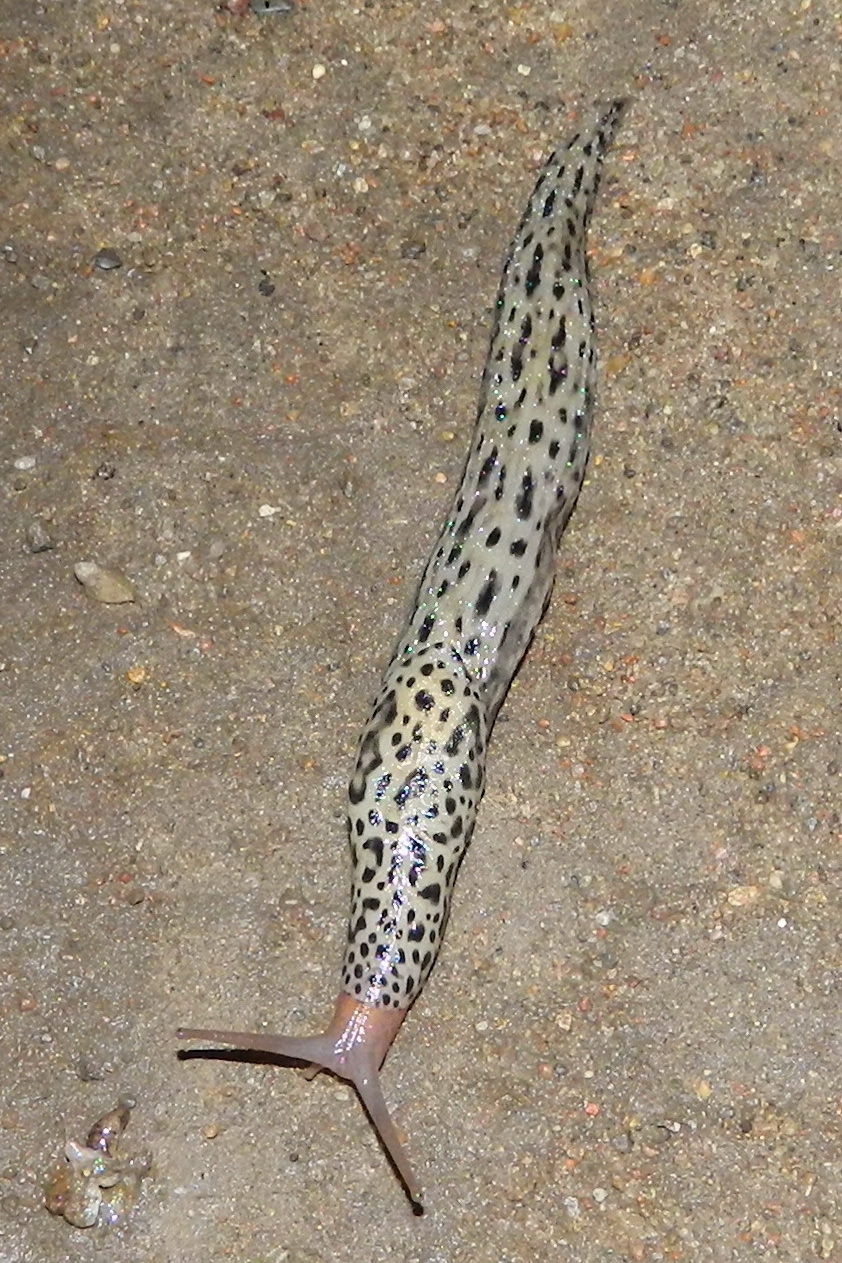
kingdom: Animalia
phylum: Mollusca
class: Gastropoda
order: Stylommatophora
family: Limacidae
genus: Limax
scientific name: Limax maximus
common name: Great grey slug
